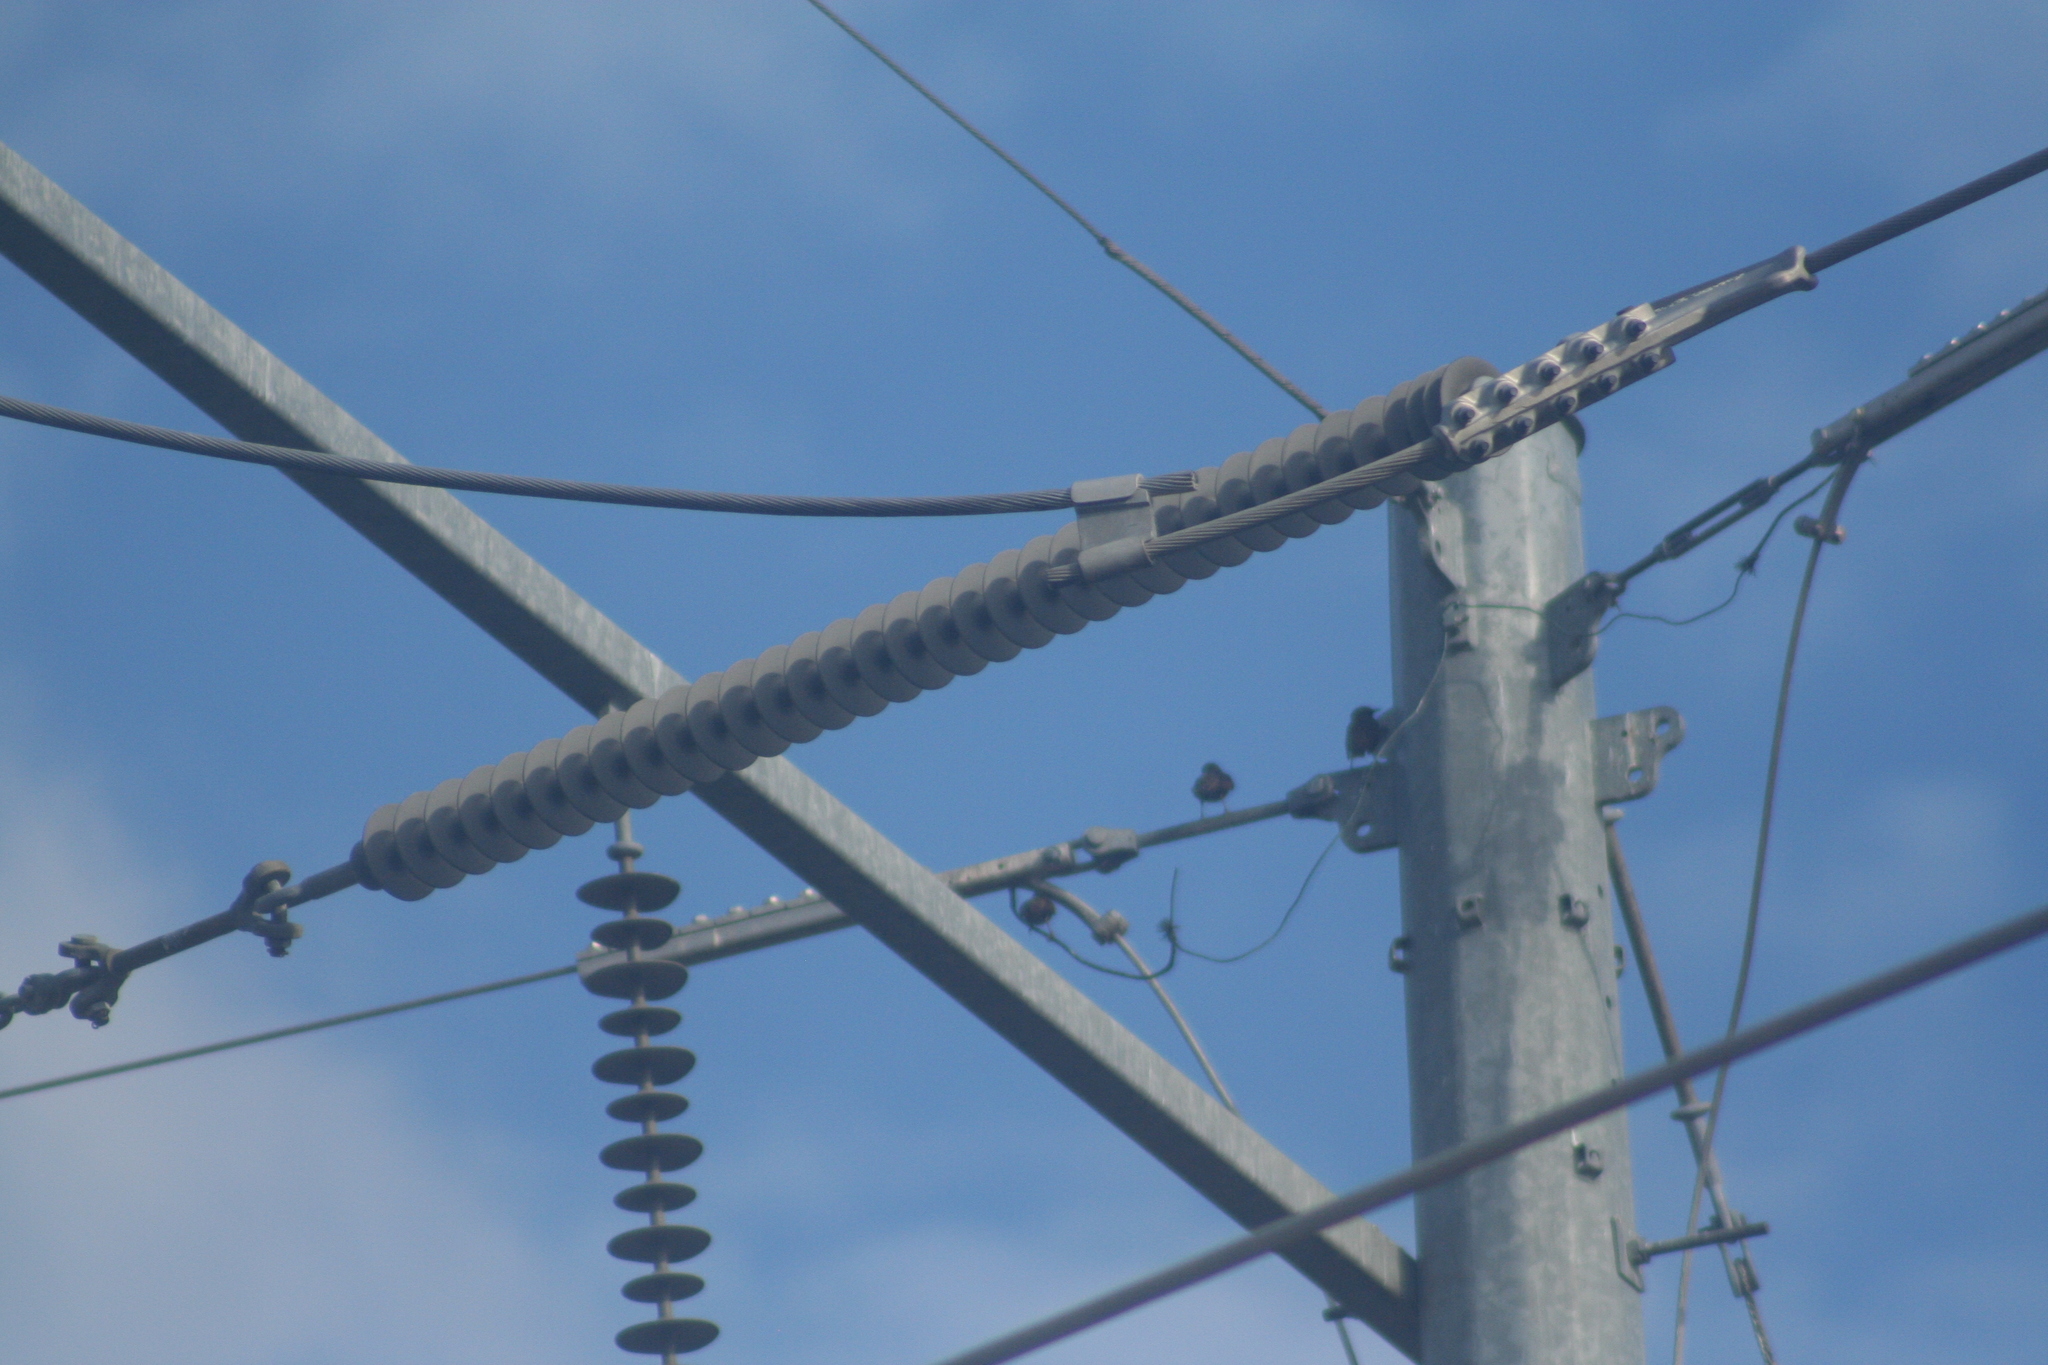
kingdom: Animalia
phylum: Chordata
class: Aves
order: Passeriformes
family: Sturnidae
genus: Sturnus
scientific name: Sturnus vulgaris
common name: Common starling
